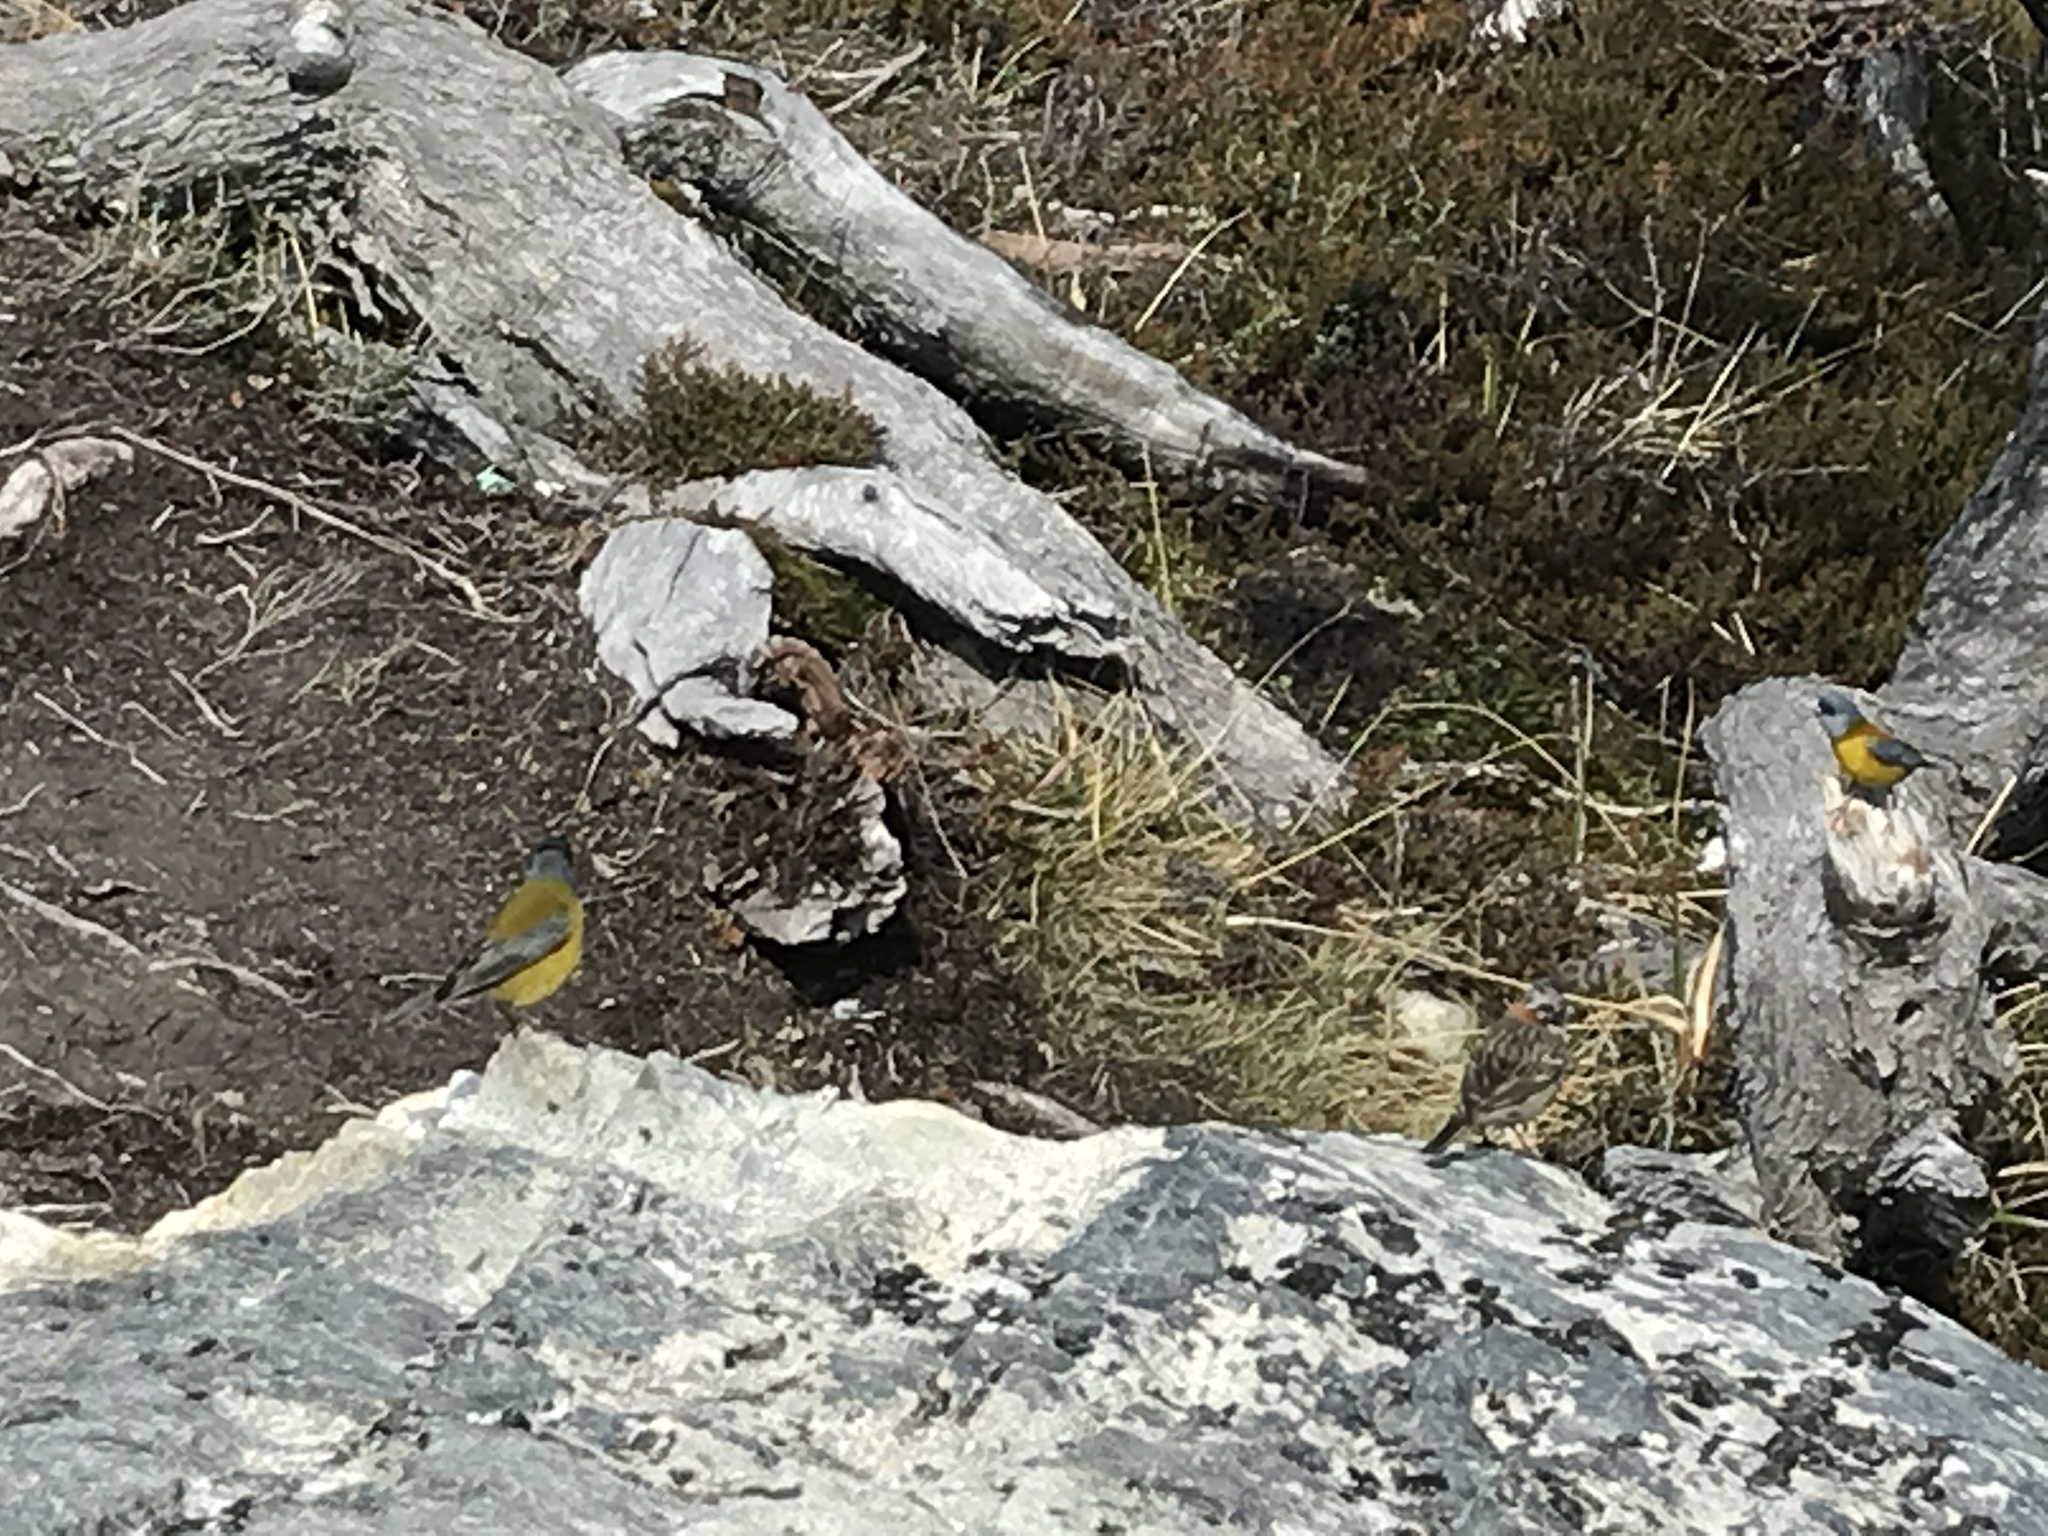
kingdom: Animalia
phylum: Chordata
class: Aves
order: Passeriformes
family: Thraupidae
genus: Phrygilus
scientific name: Phrygilus patagonicus
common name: Patagonian sierra finch
